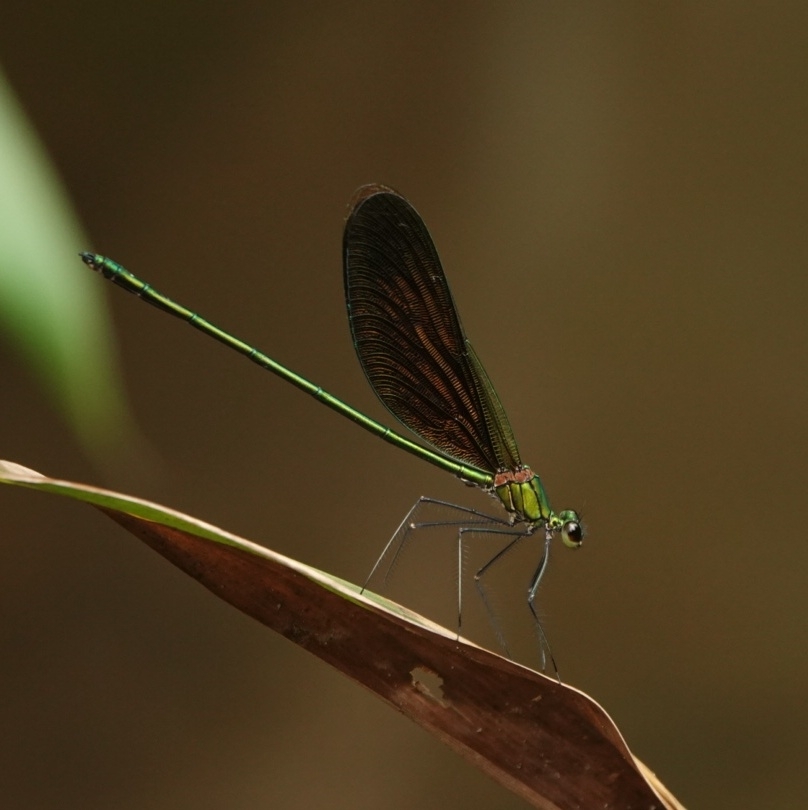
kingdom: Animalia
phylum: Arthropoda
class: Insecta
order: Odonata
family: Calopterygidae
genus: Neurobasis
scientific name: Neurobasis chinensis
